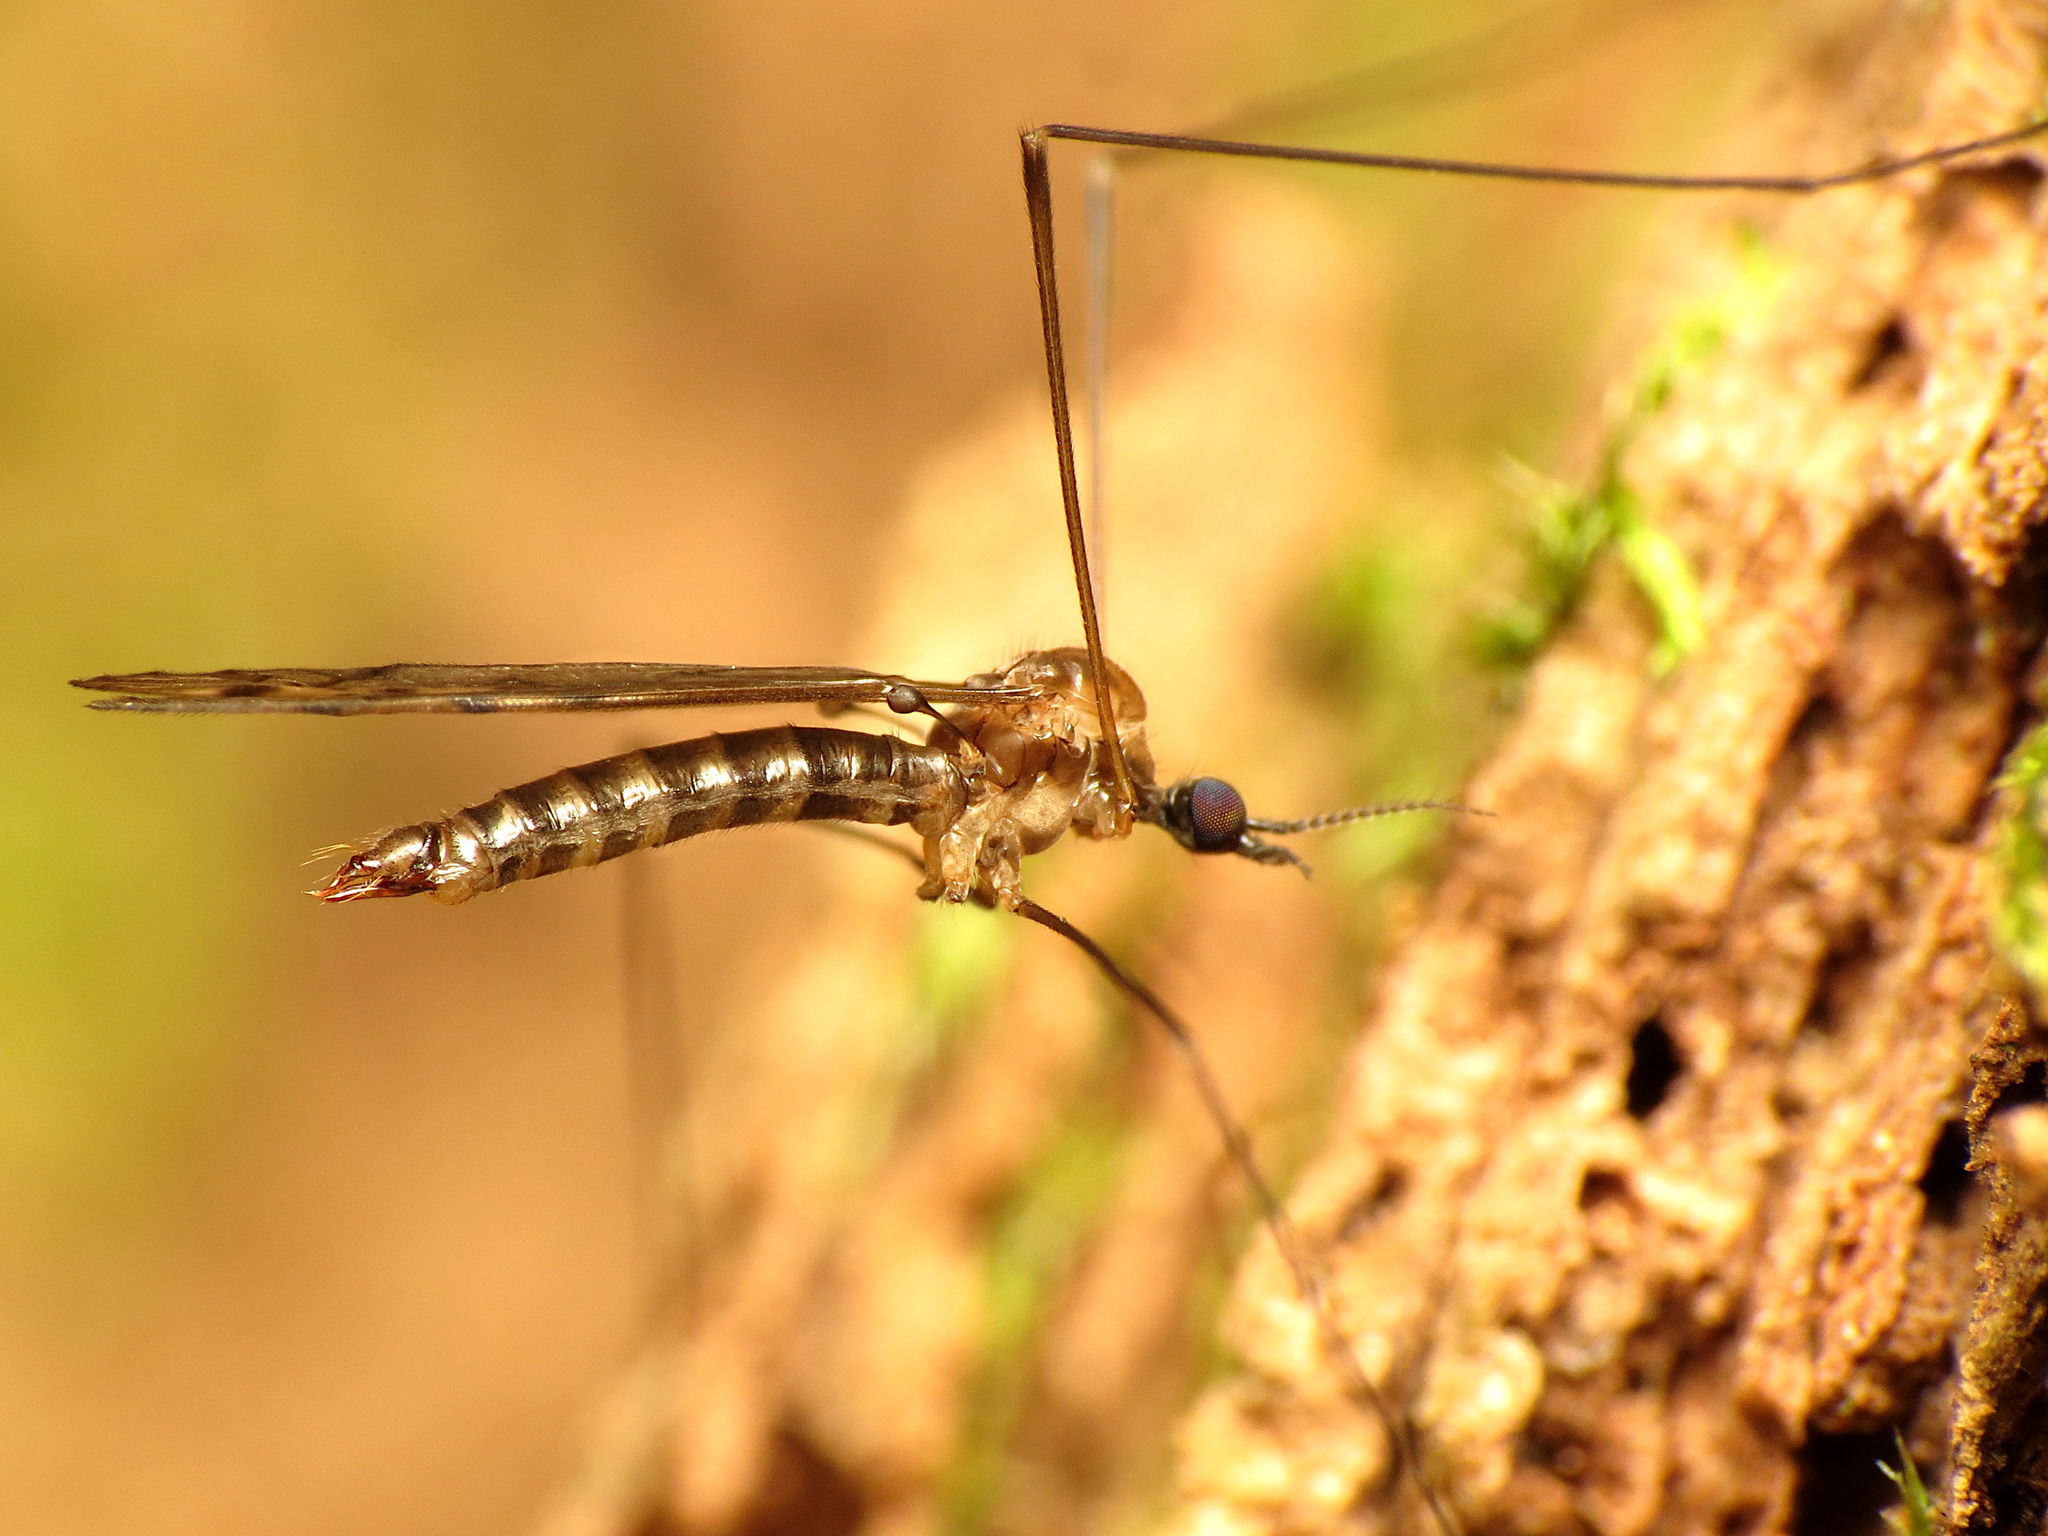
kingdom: Animalia
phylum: Arthropoda
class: Insecta
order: Diptera
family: Limoniidae
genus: Neolimonia
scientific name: Neolimonia rara
